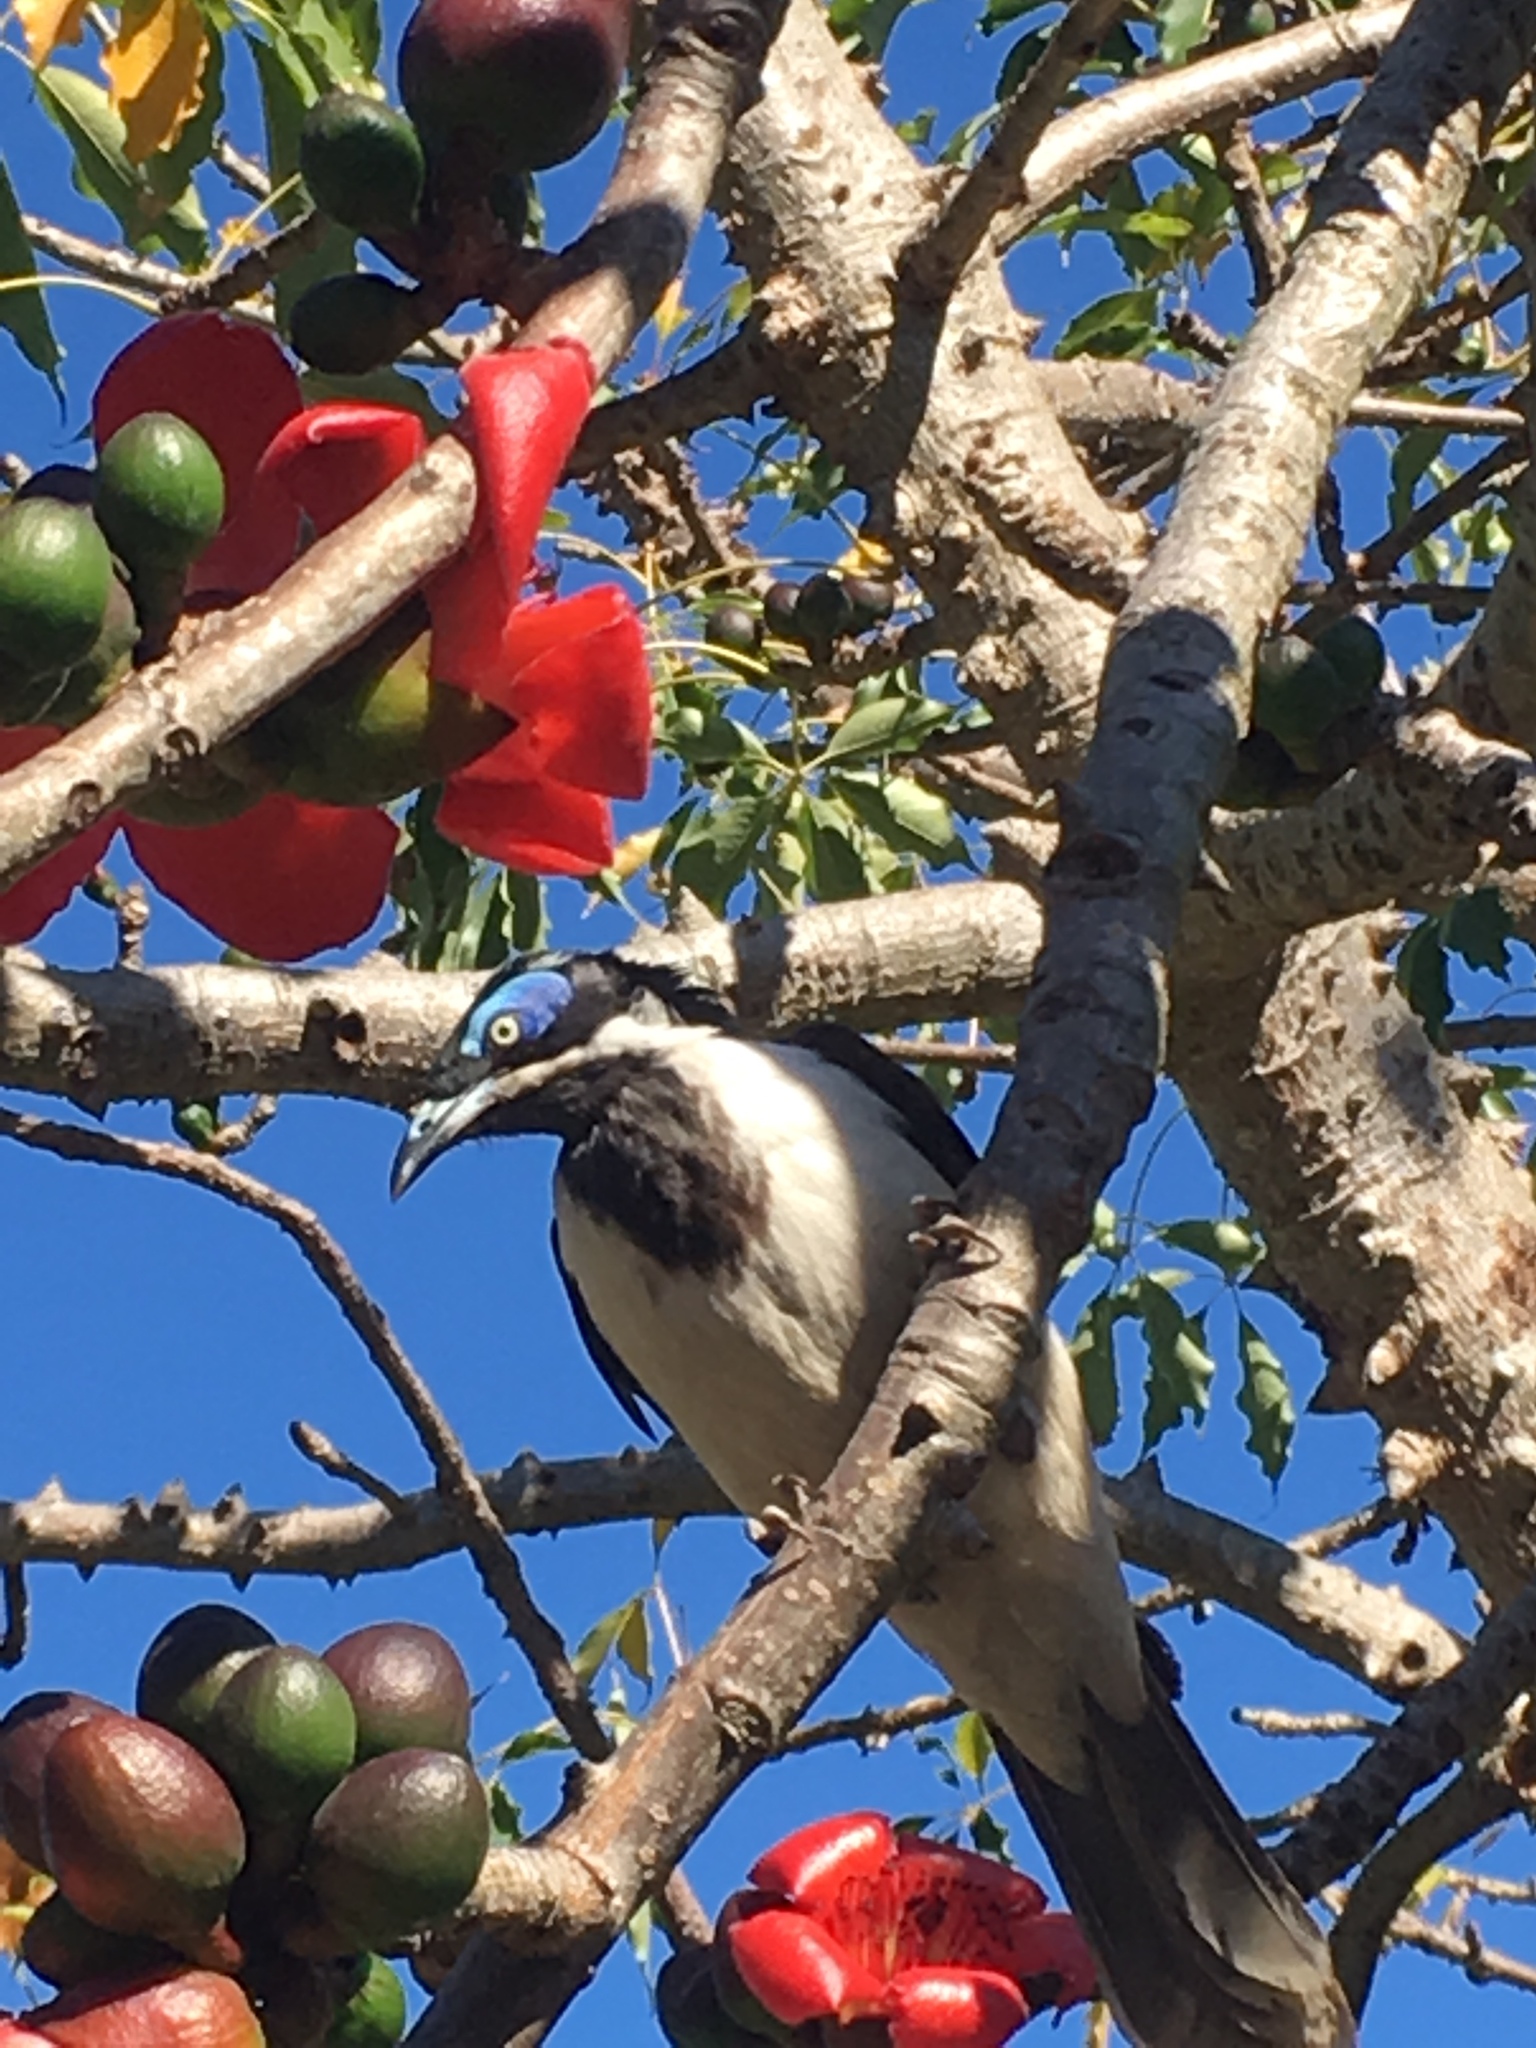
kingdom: Animalia
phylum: Chordata
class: Aves
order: Passeriformes
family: Meliphagidae
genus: Entomyzon
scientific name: Entomyzon cyanotis
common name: Blue-faced honeyeater
